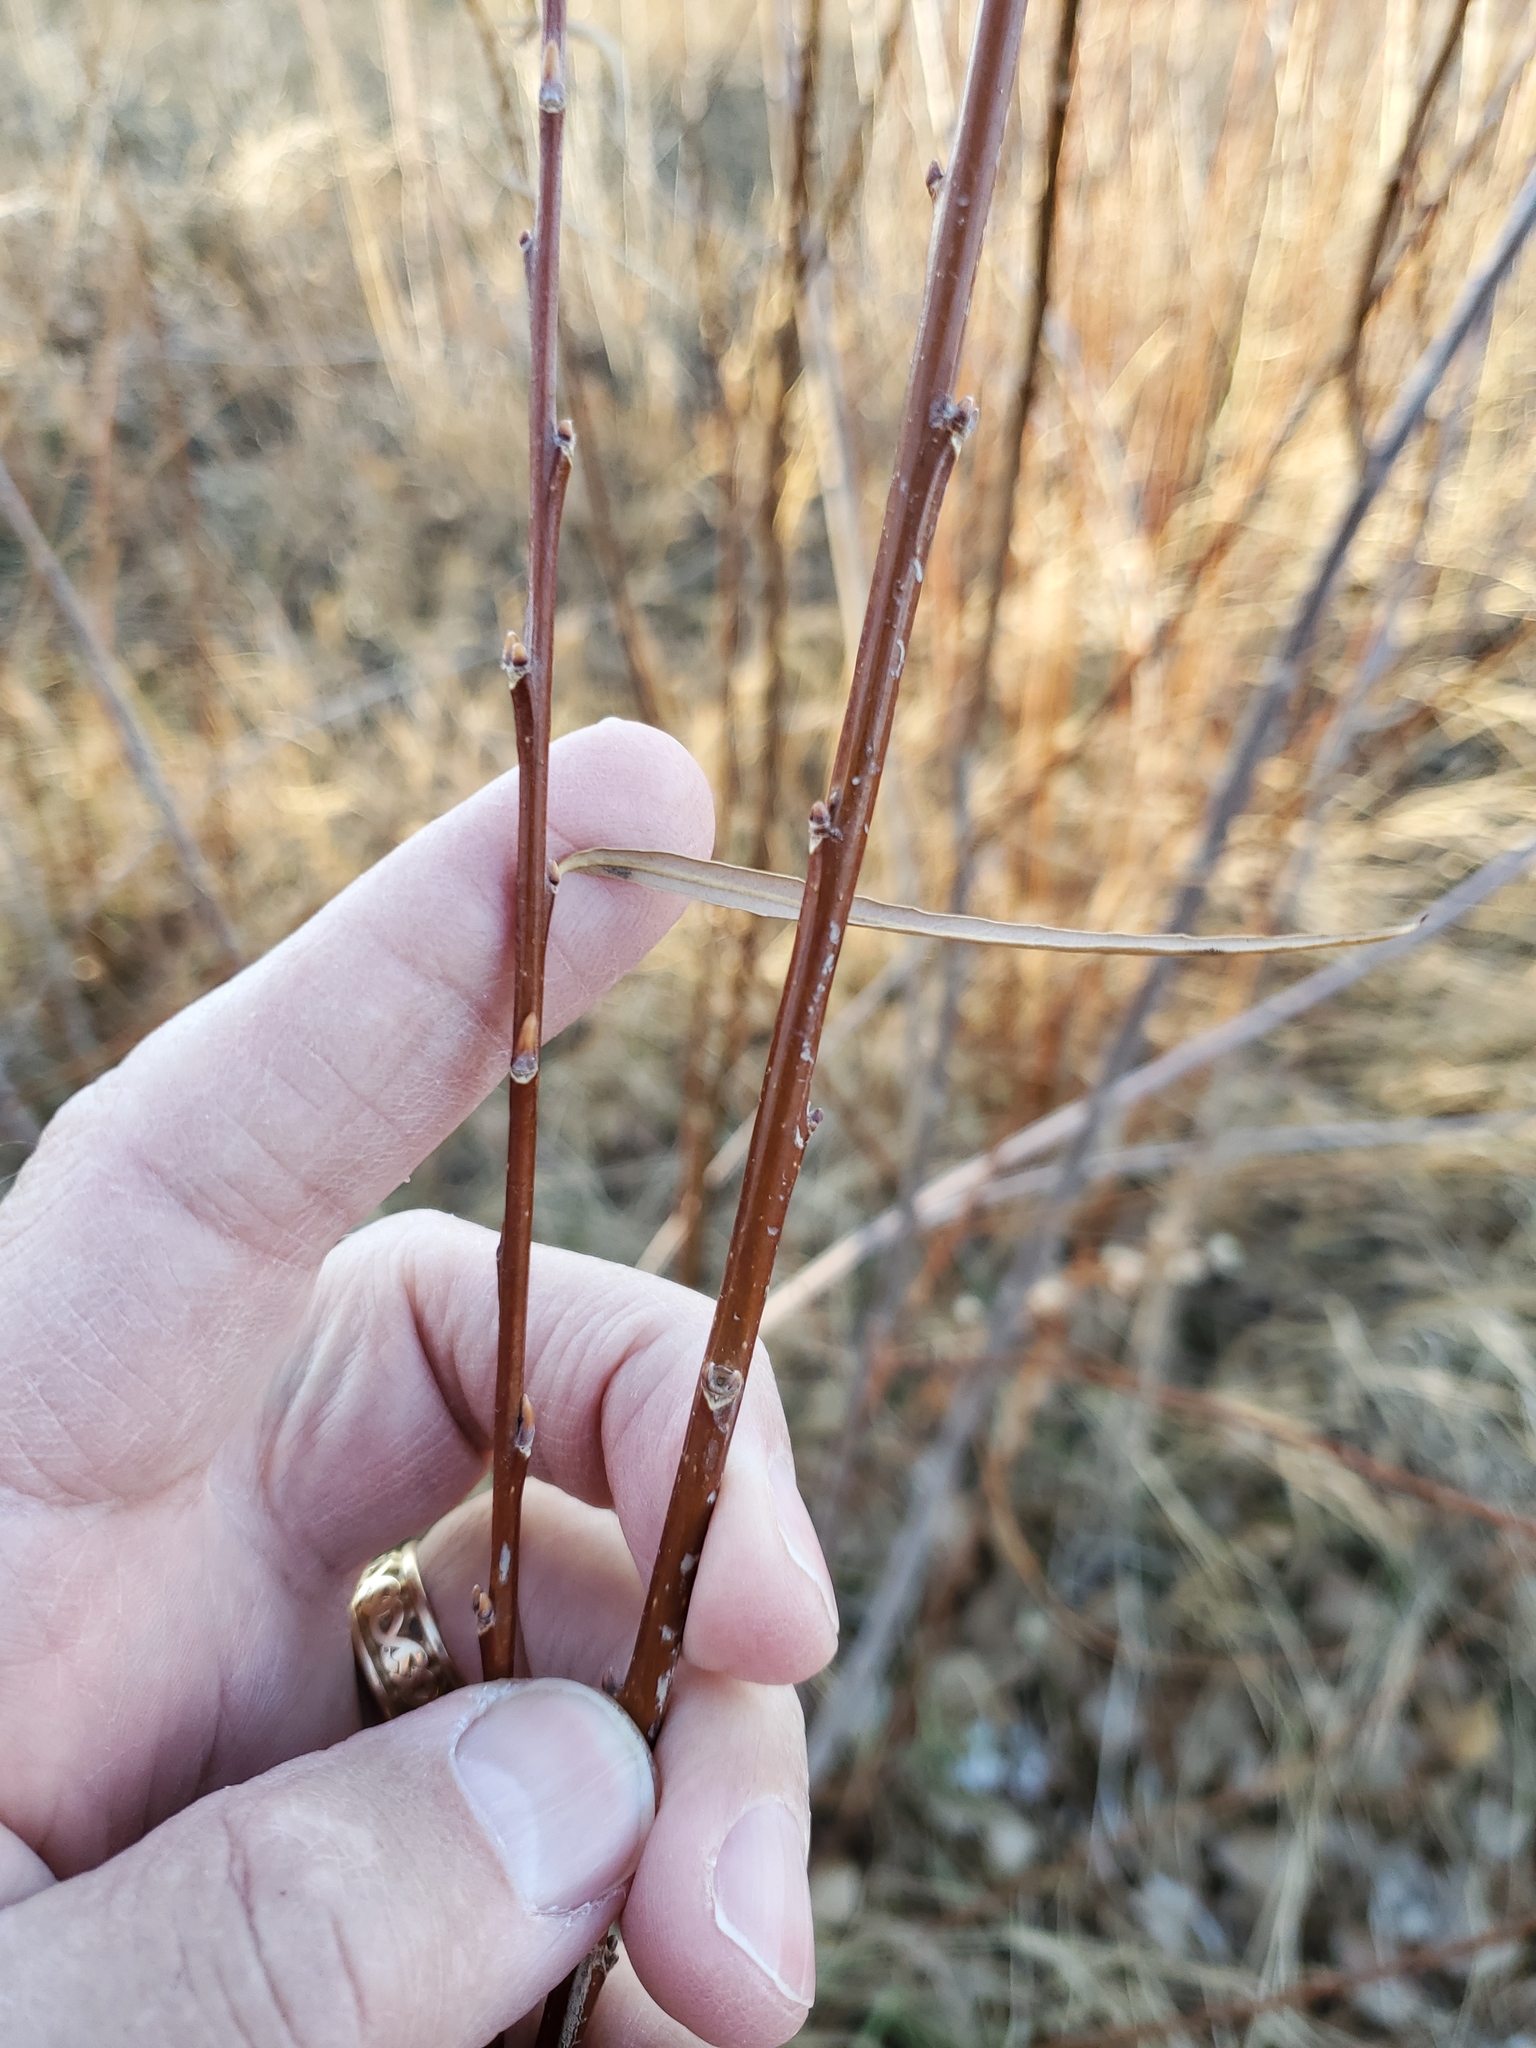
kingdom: Plantae
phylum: Tracheophyta
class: Magnoliopsida
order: Malpighiales
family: Salicaceae
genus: Salix
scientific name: Salix interior
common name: Sandbar willow
